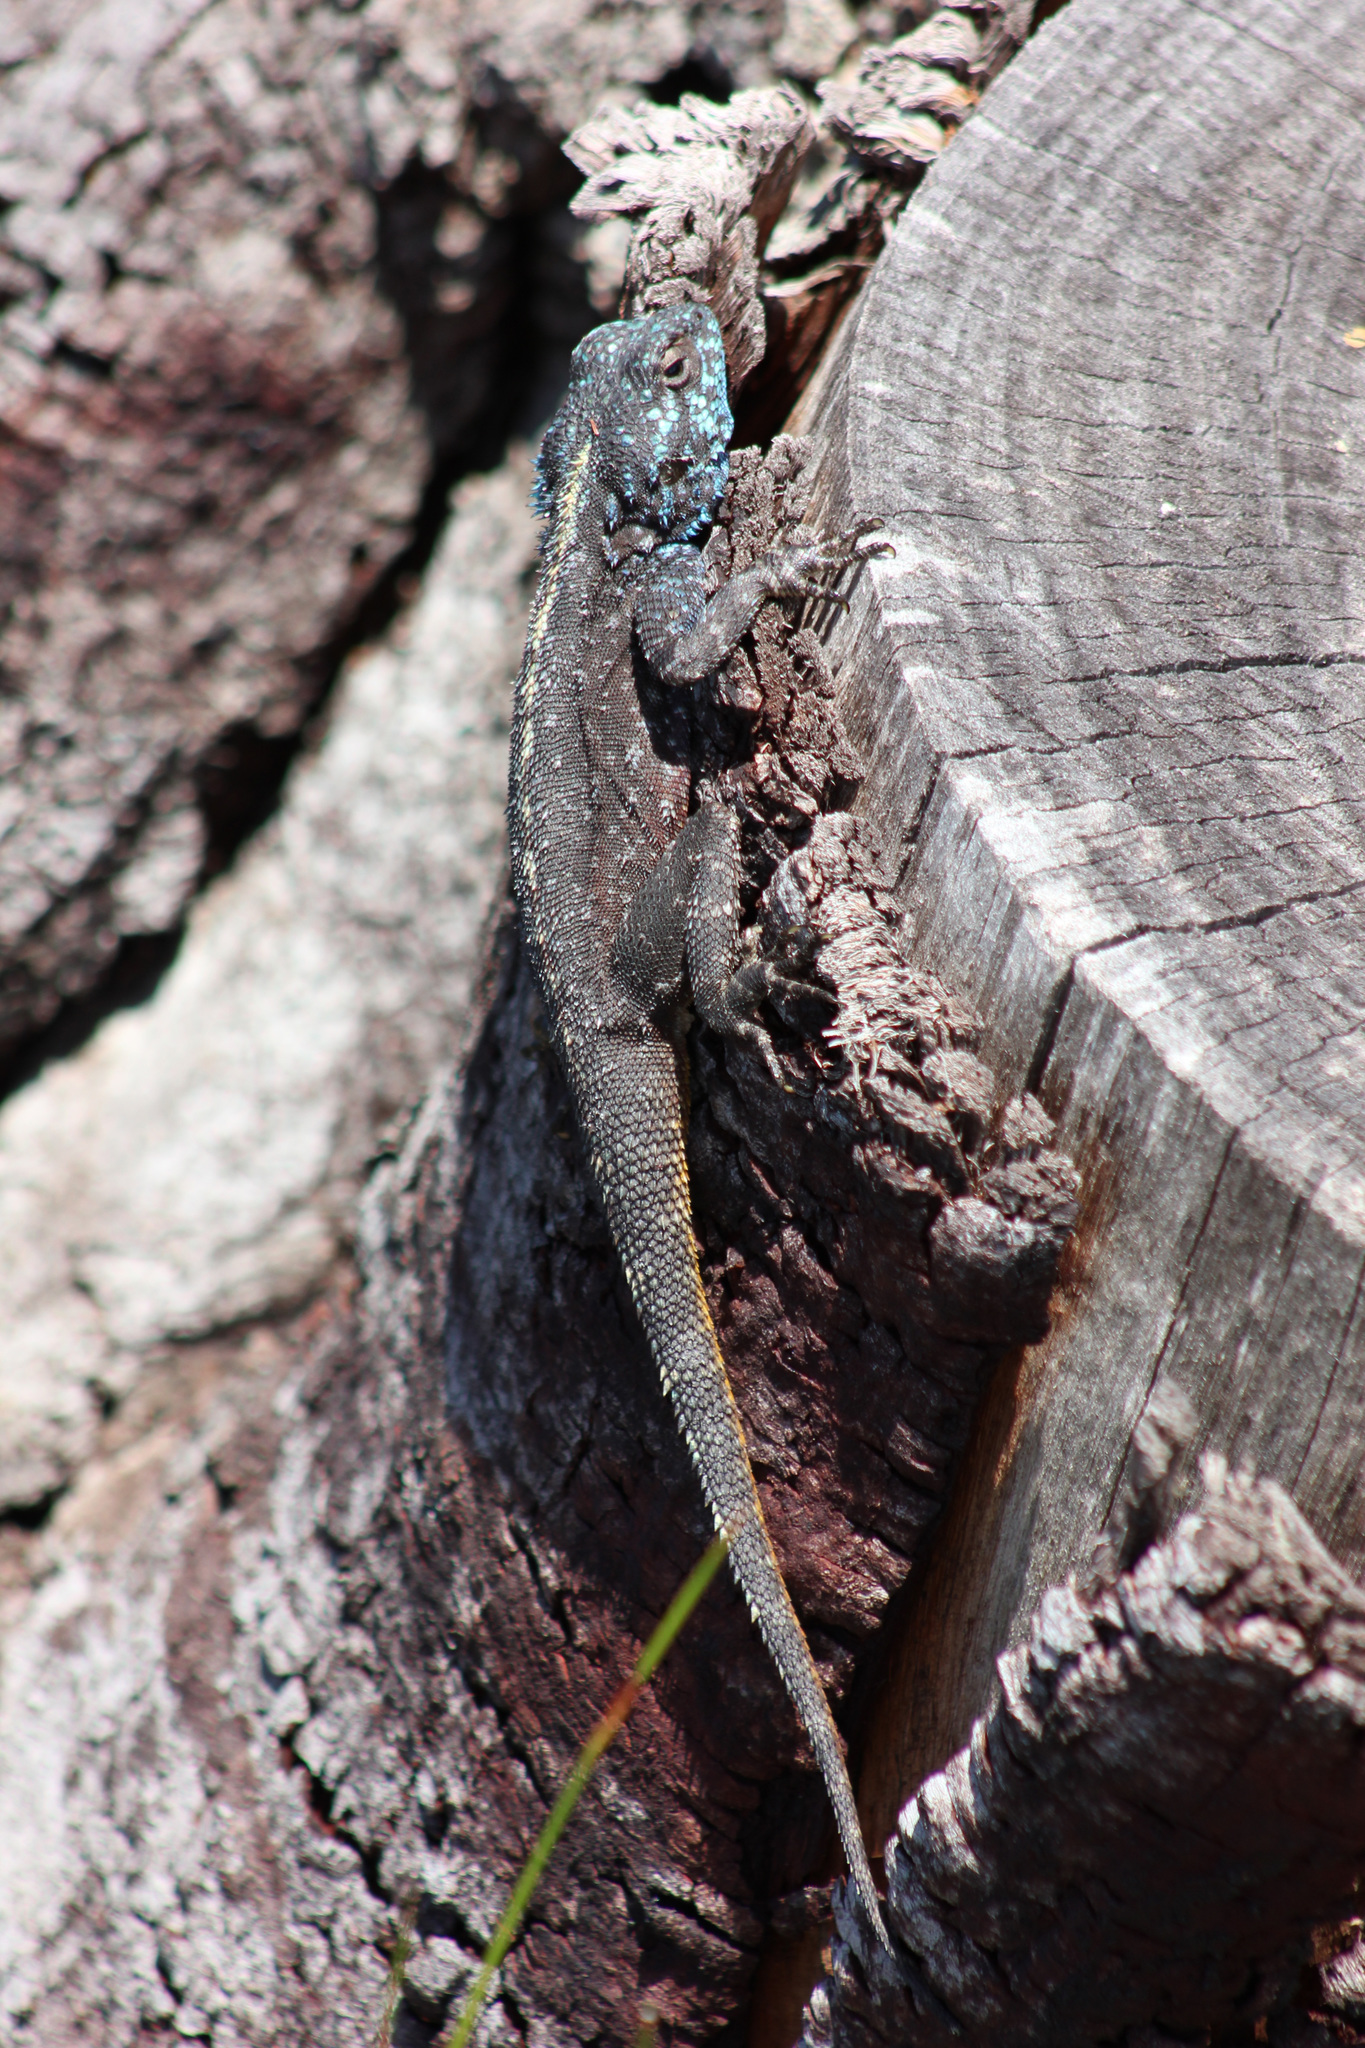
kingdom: Animalia
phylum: Chordata
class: Squamata
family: Agamidae
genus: Agama
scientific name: Agama atra
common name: Southern african rock agama
